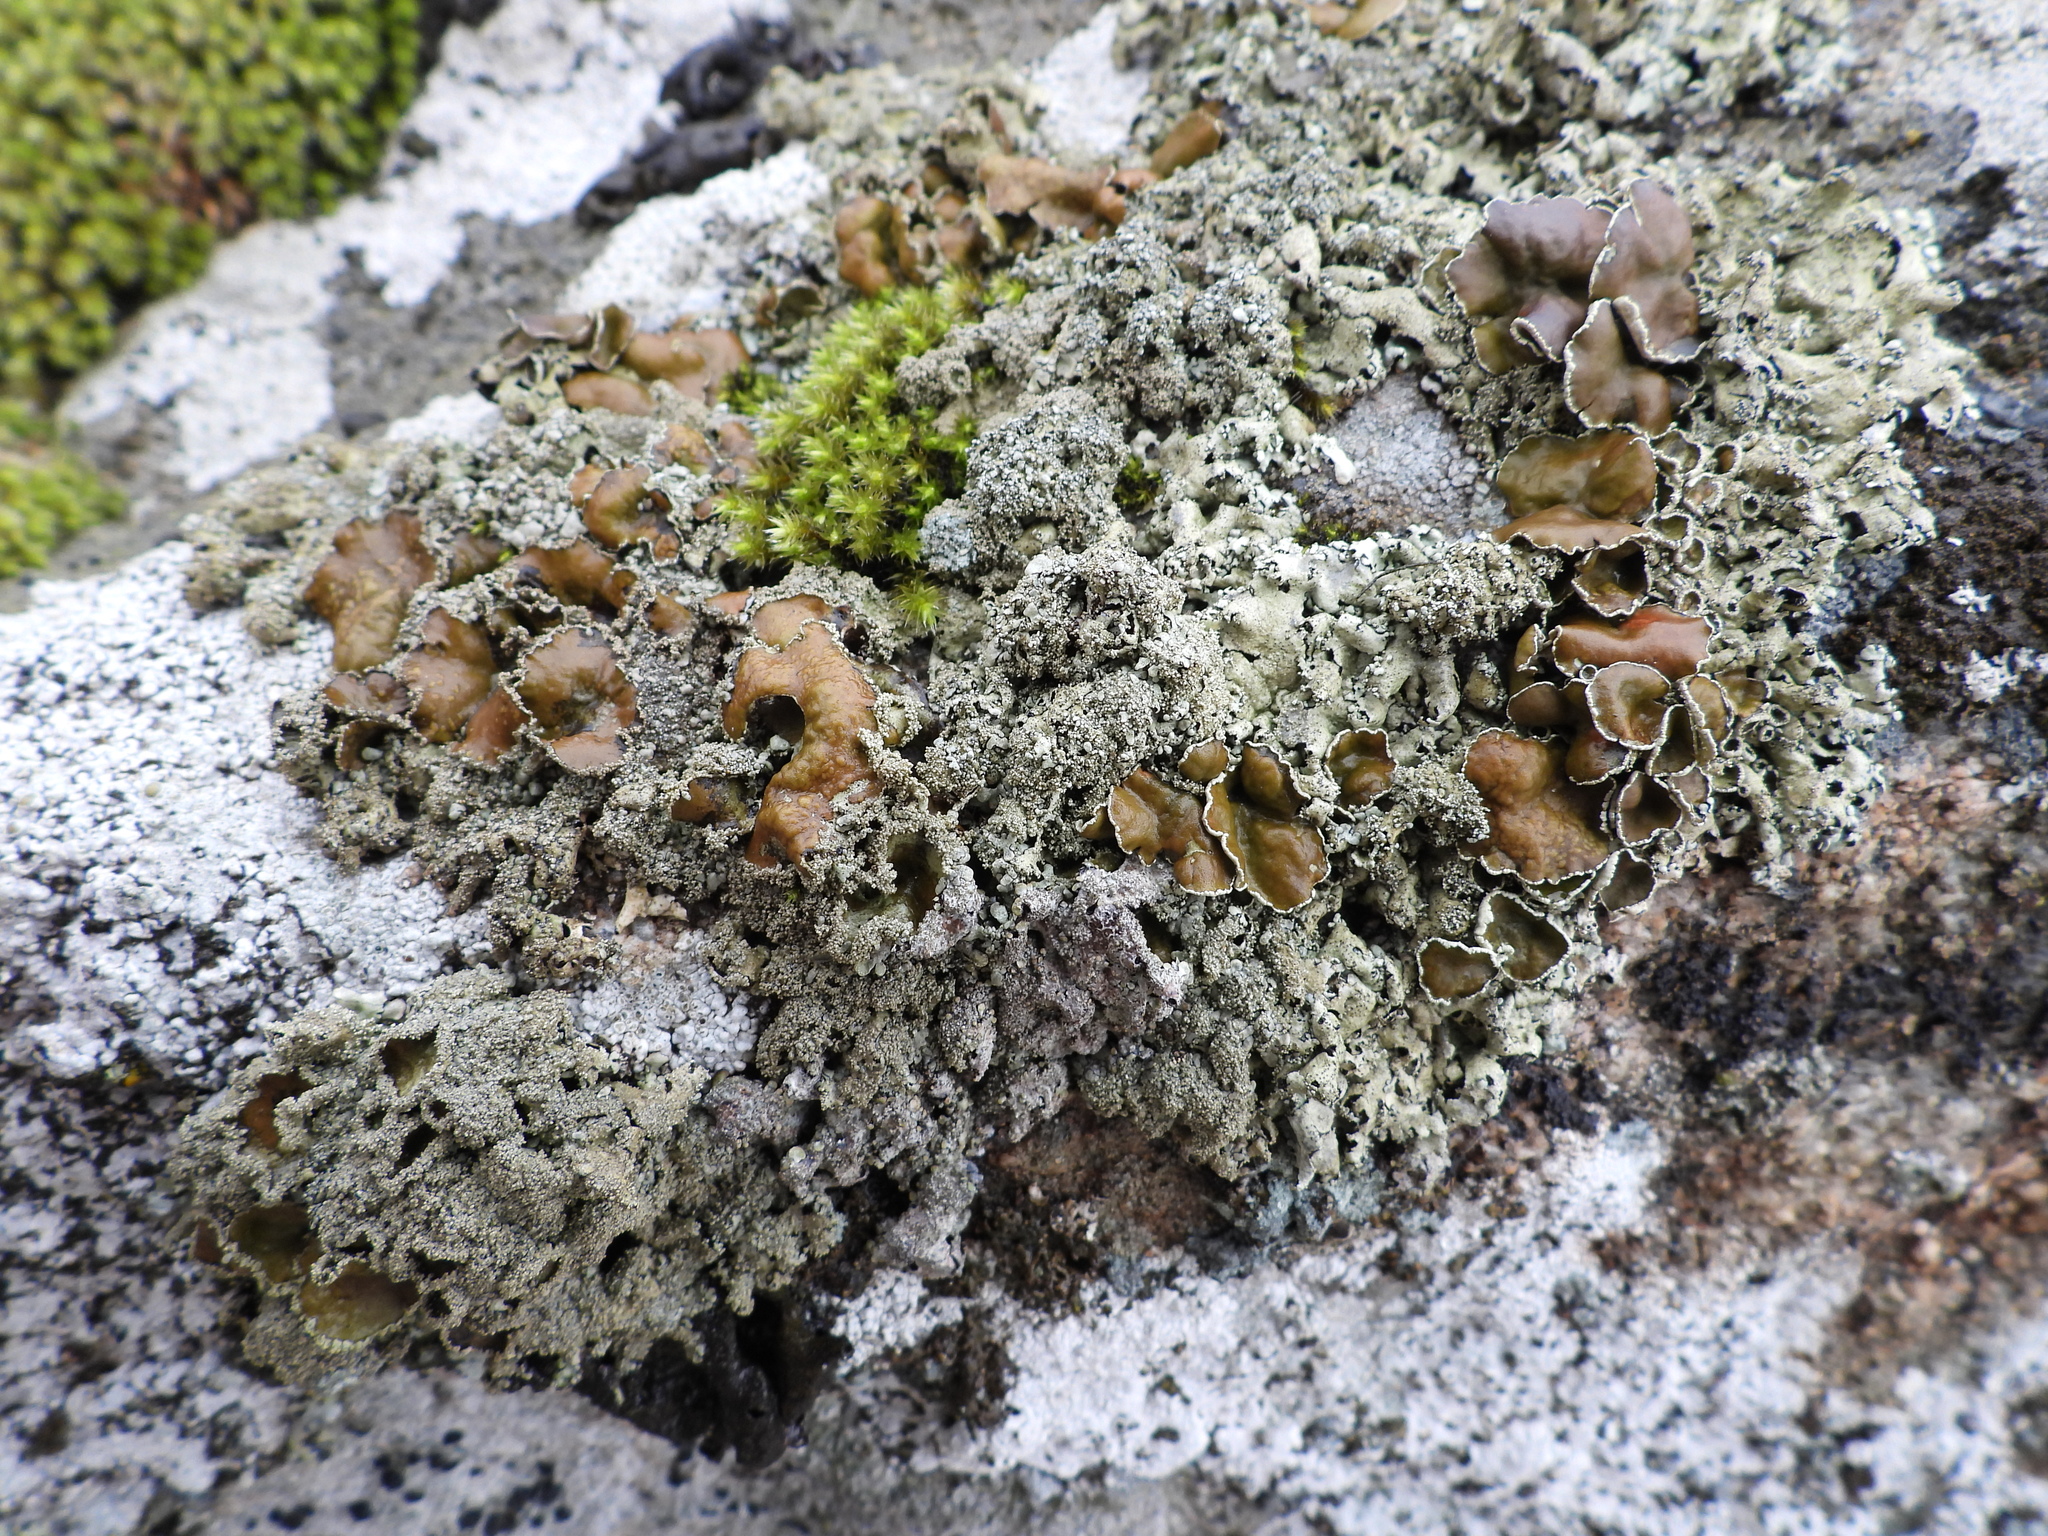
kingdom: Fungi
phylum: Ascomycota
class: Lecanoromycetes
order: Lecanorales
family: Parmeliaceae
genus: Xanthoparmelia
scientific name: Xanthoparmelia conspersa
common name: Peppered rock shield
